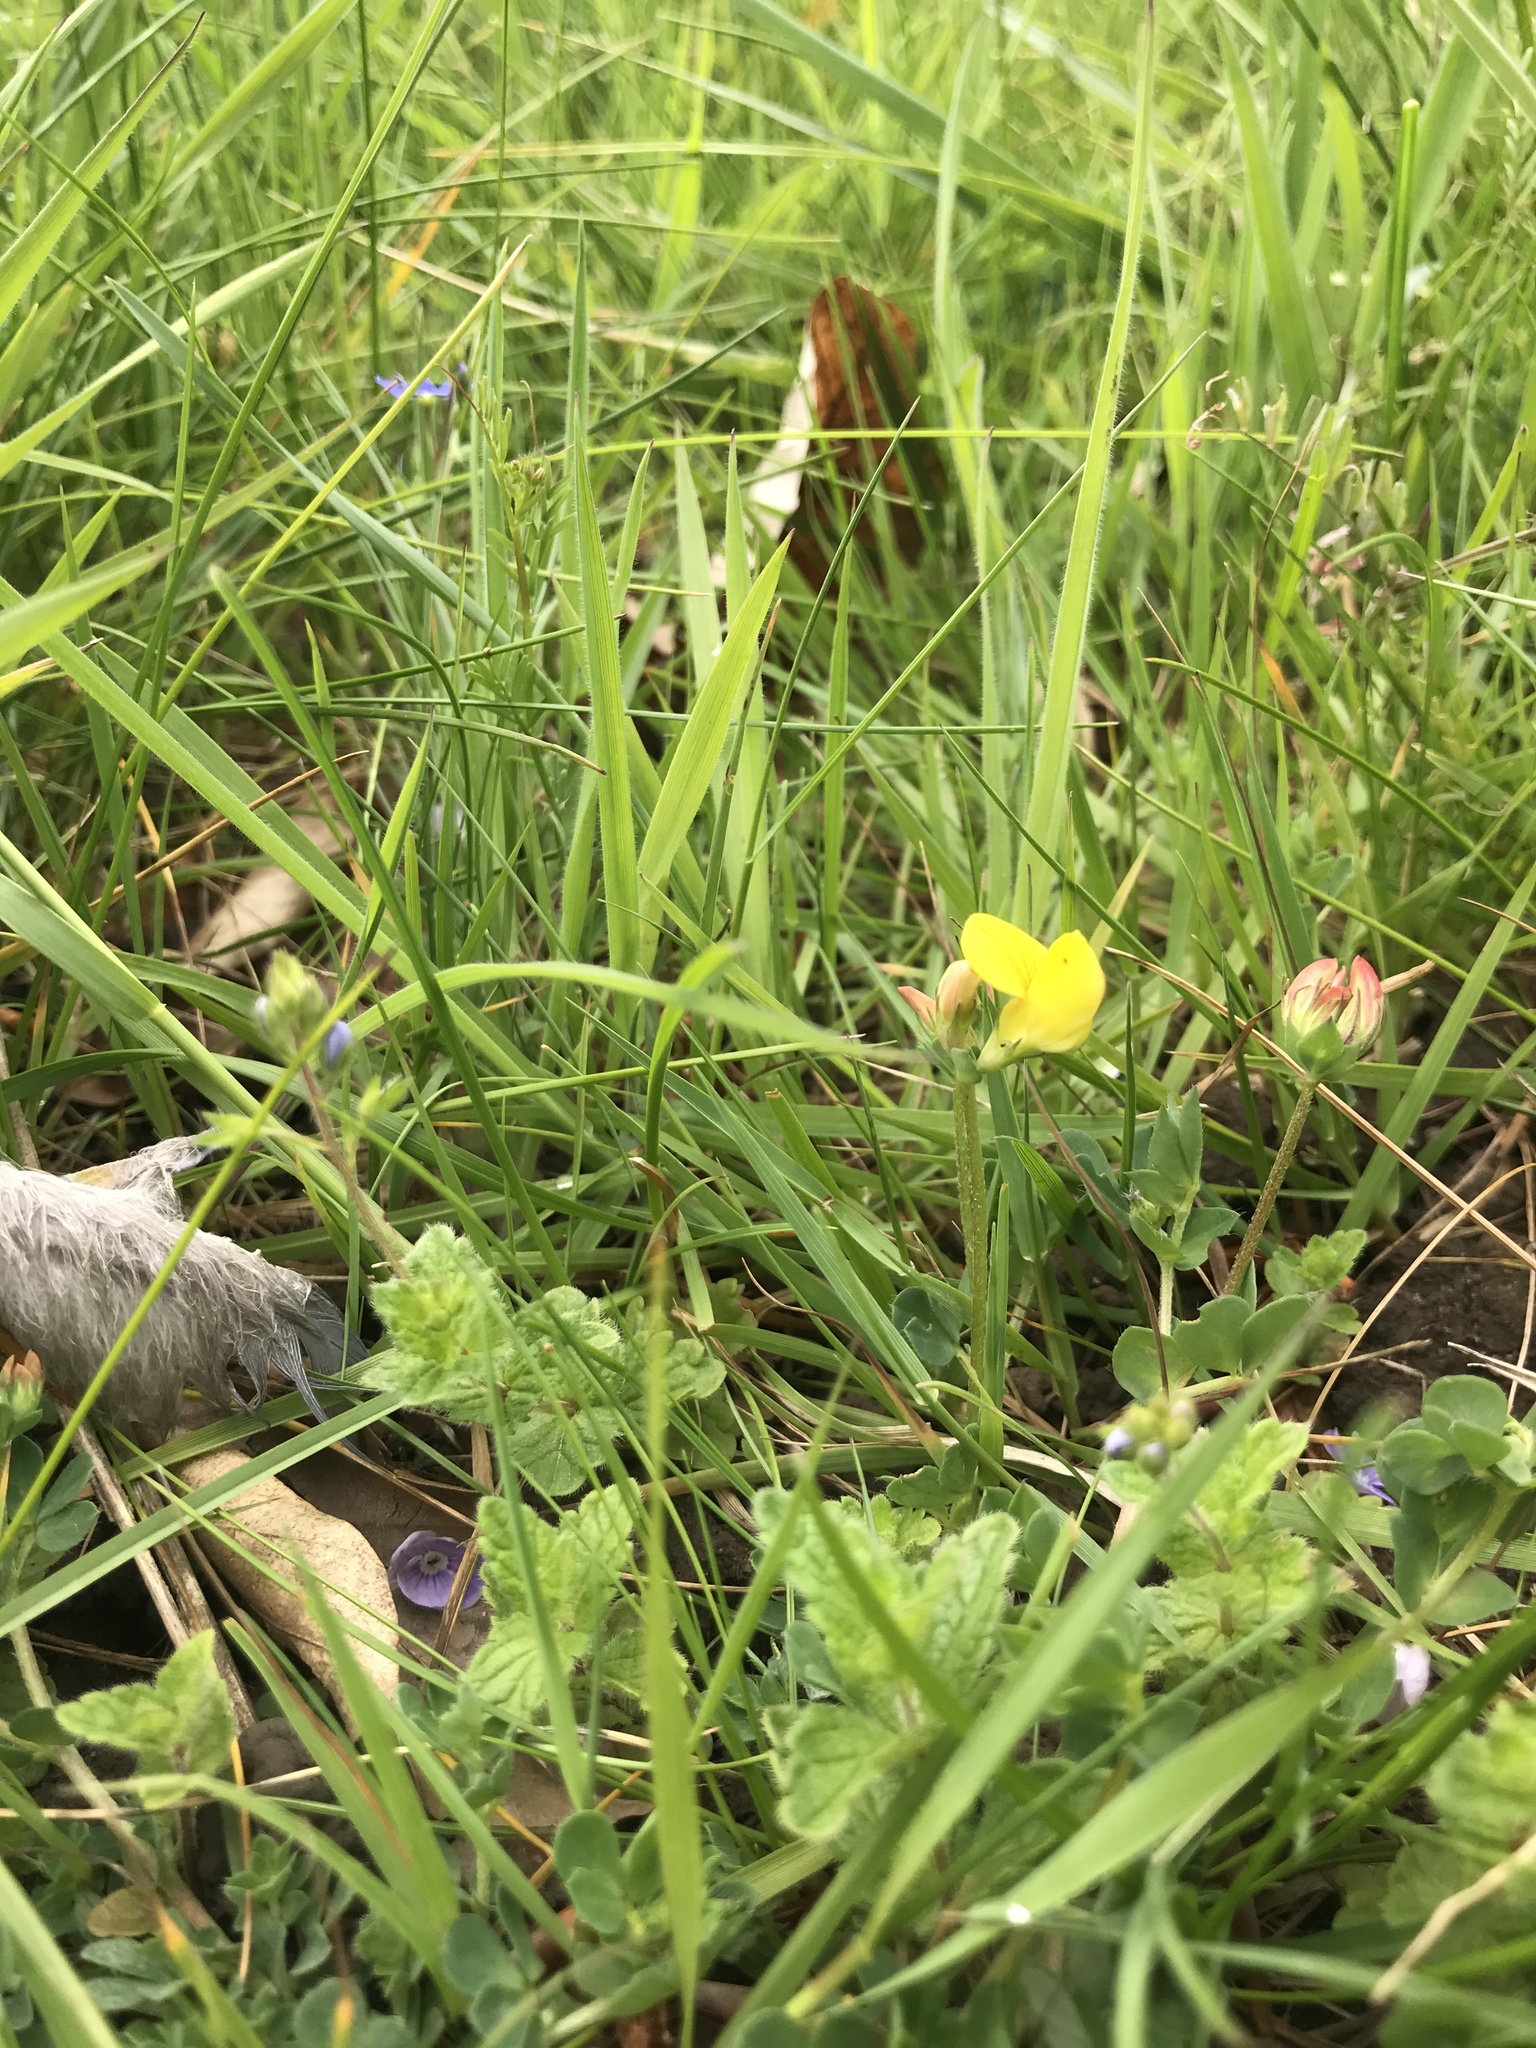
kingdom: Plantae
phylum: Tracheophyta
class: Magnoliopsida
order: Fabales
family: Fabaceae
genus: Lotus
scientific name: Lotus corniculatus
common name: Common bird's-foot-trefoil
